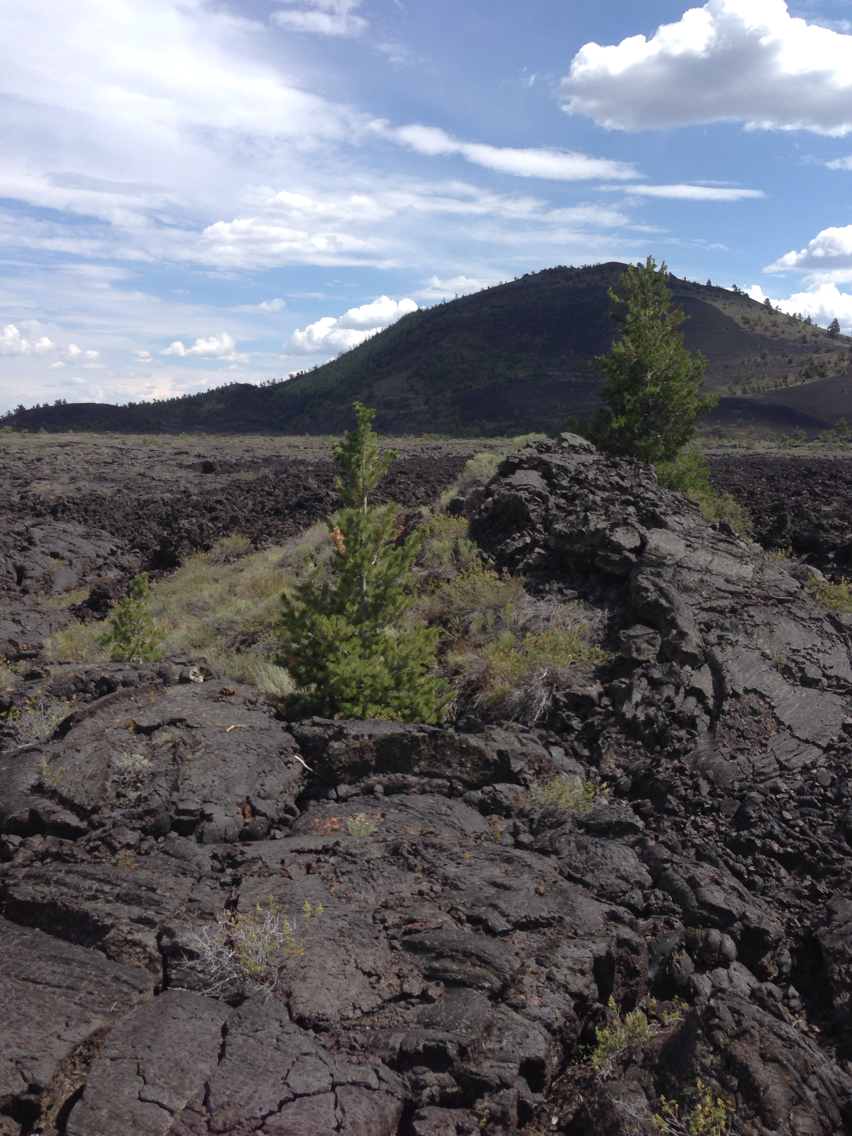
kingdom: Plantae
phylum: Tracheophyta
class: Pinopsida
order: Pinales
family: Pinaceae
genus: Pinus
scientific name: Pinus flexilis
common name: Limber pine
